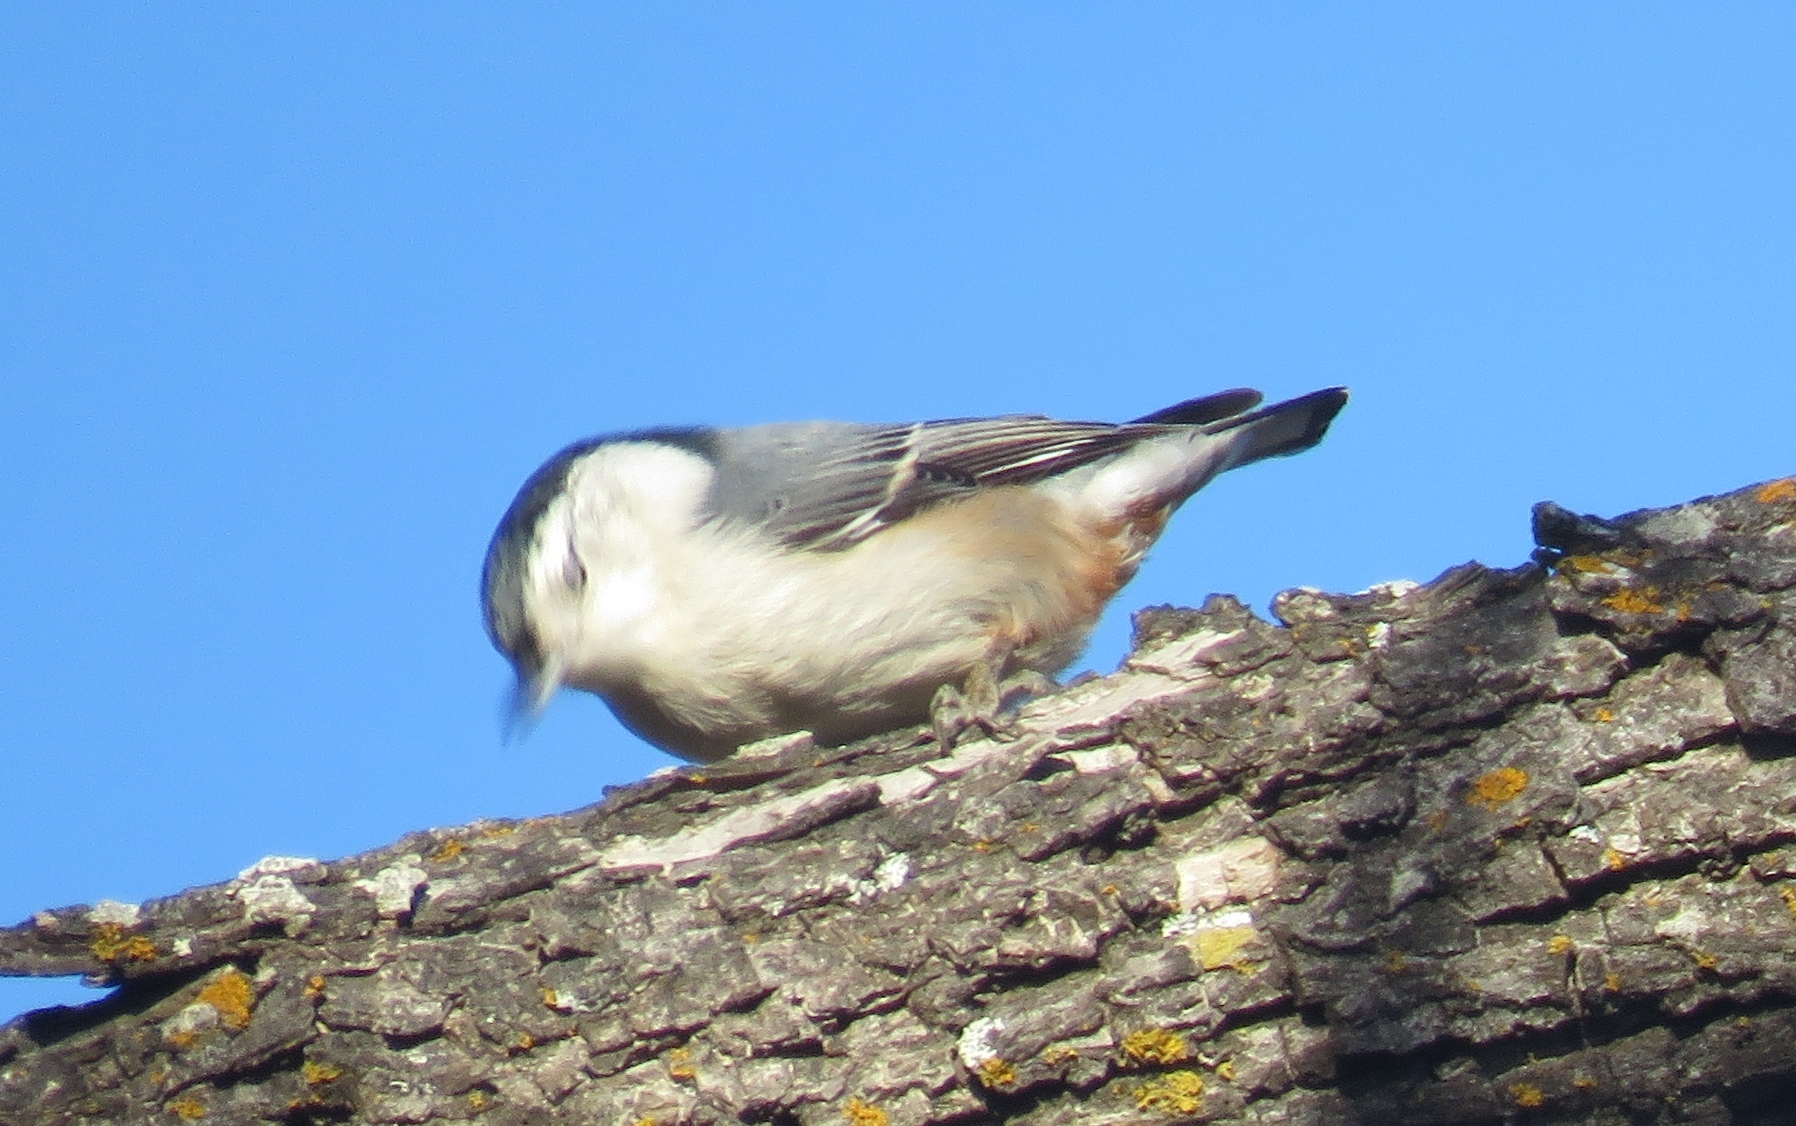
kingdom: Animalia
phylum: Chordata
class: Aves
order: Passeriformes
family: Sittidae
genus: Sitta
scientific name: Sitta carolinensis
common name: White-breasted nuthatch
